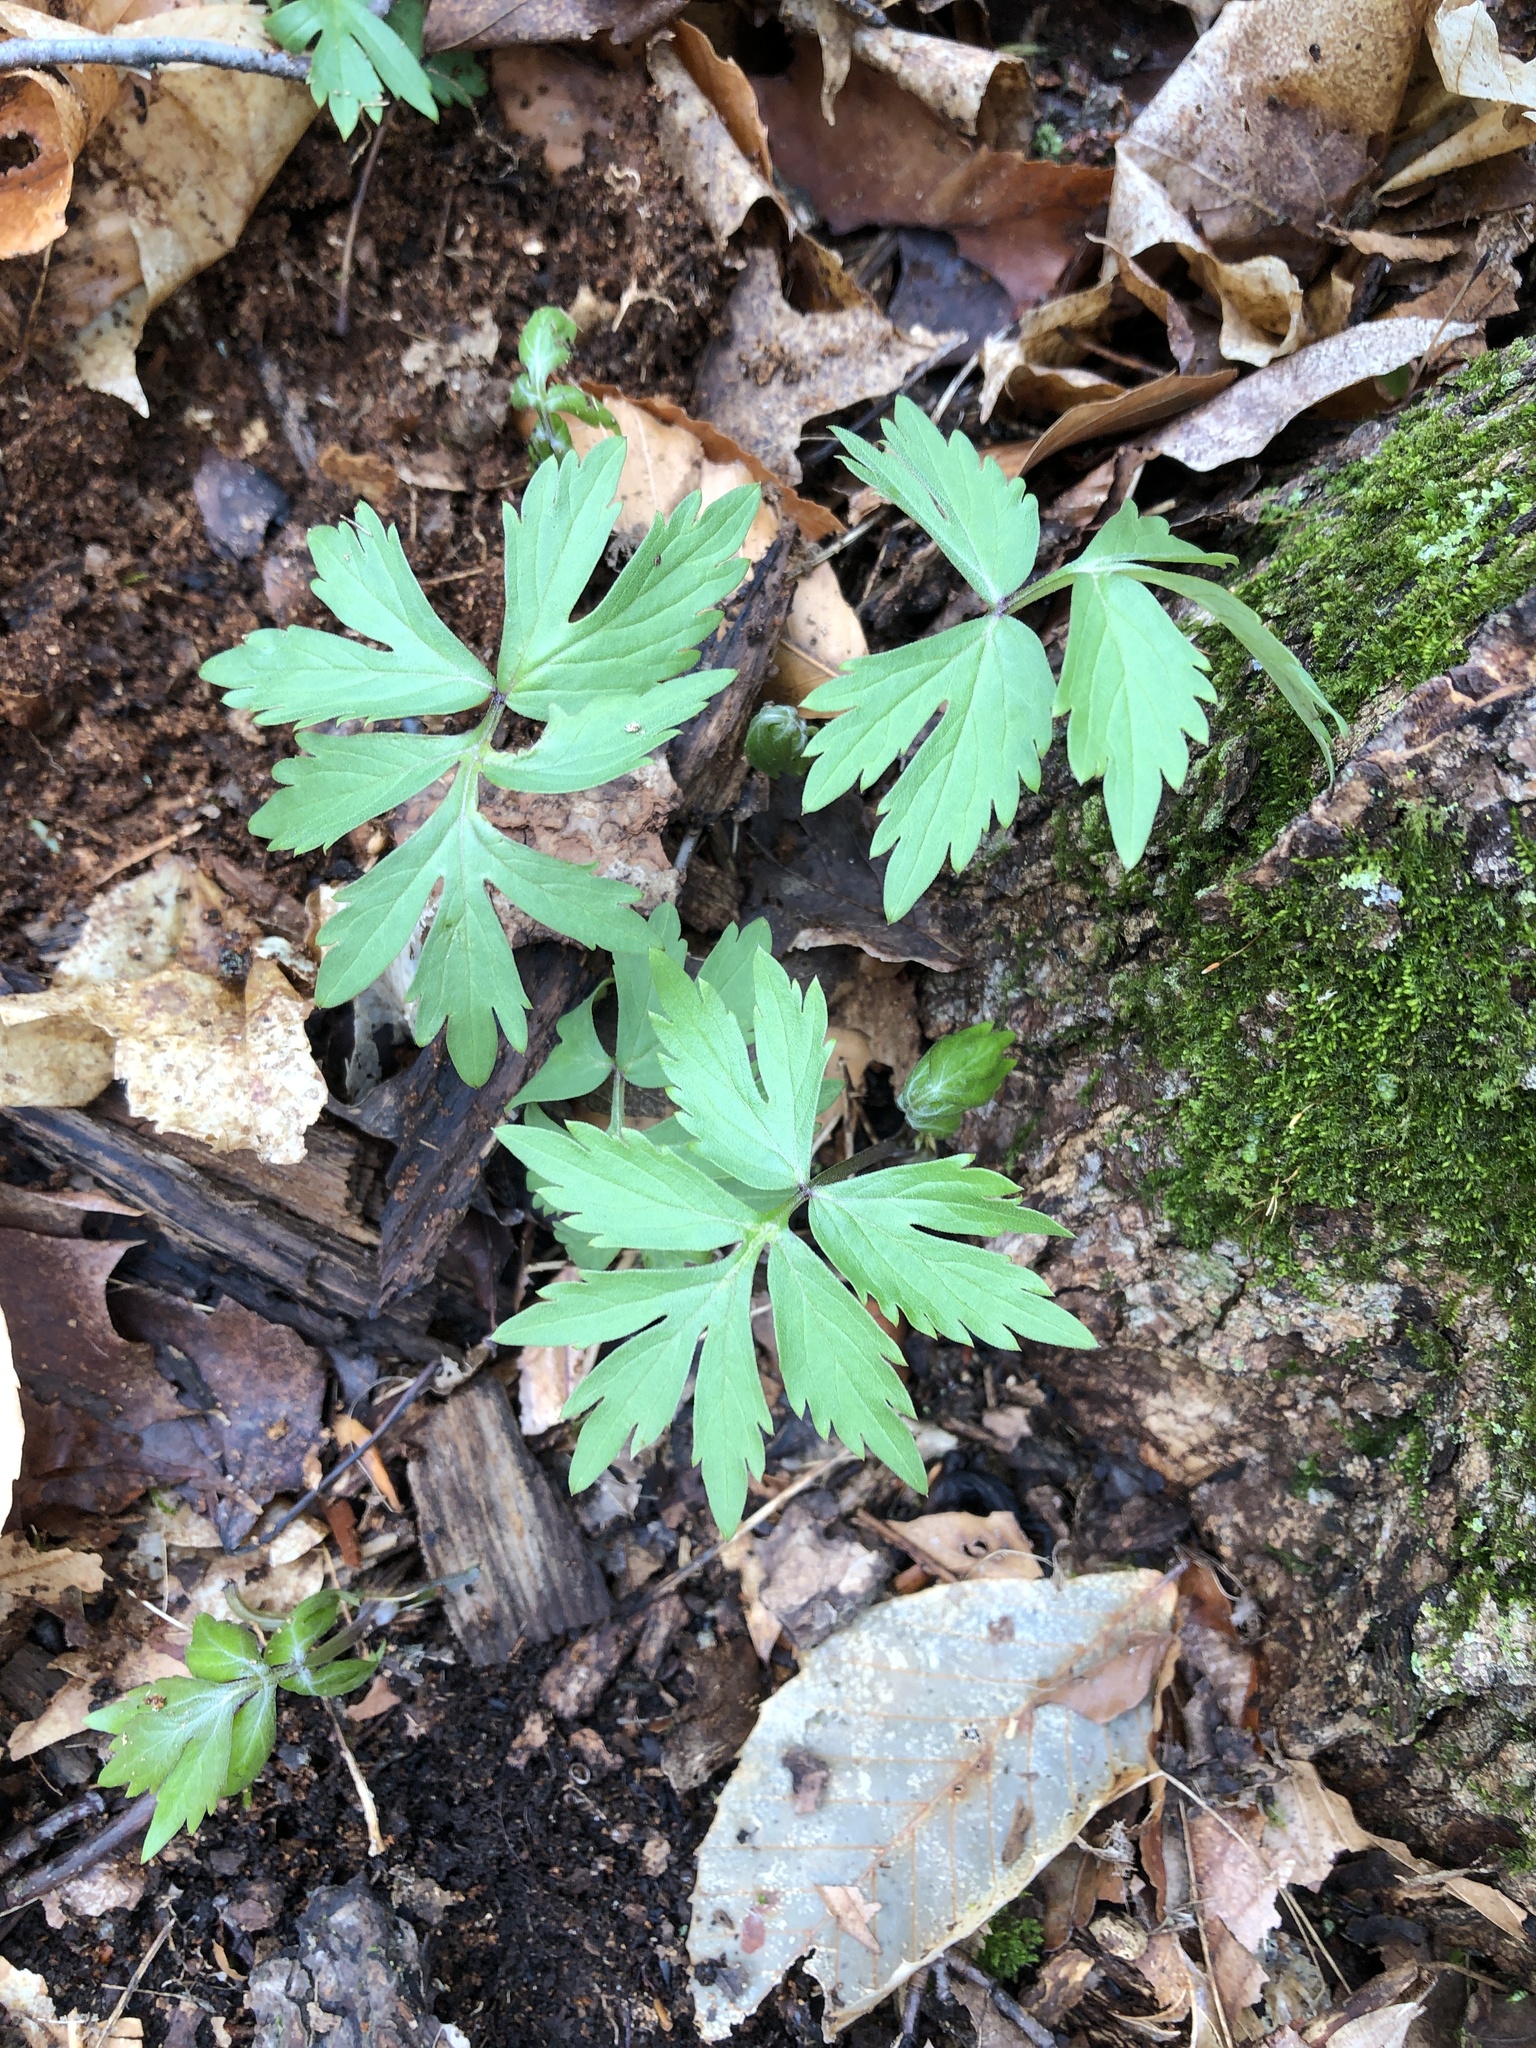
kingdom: Plantae
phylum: Tracheophyta
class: Magnoliopsida
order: Boraginales
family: Hydrophyllaceae
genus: Hydrophyllum
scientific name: Hydrophyllum virginianum
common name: Virginia waterleaf
